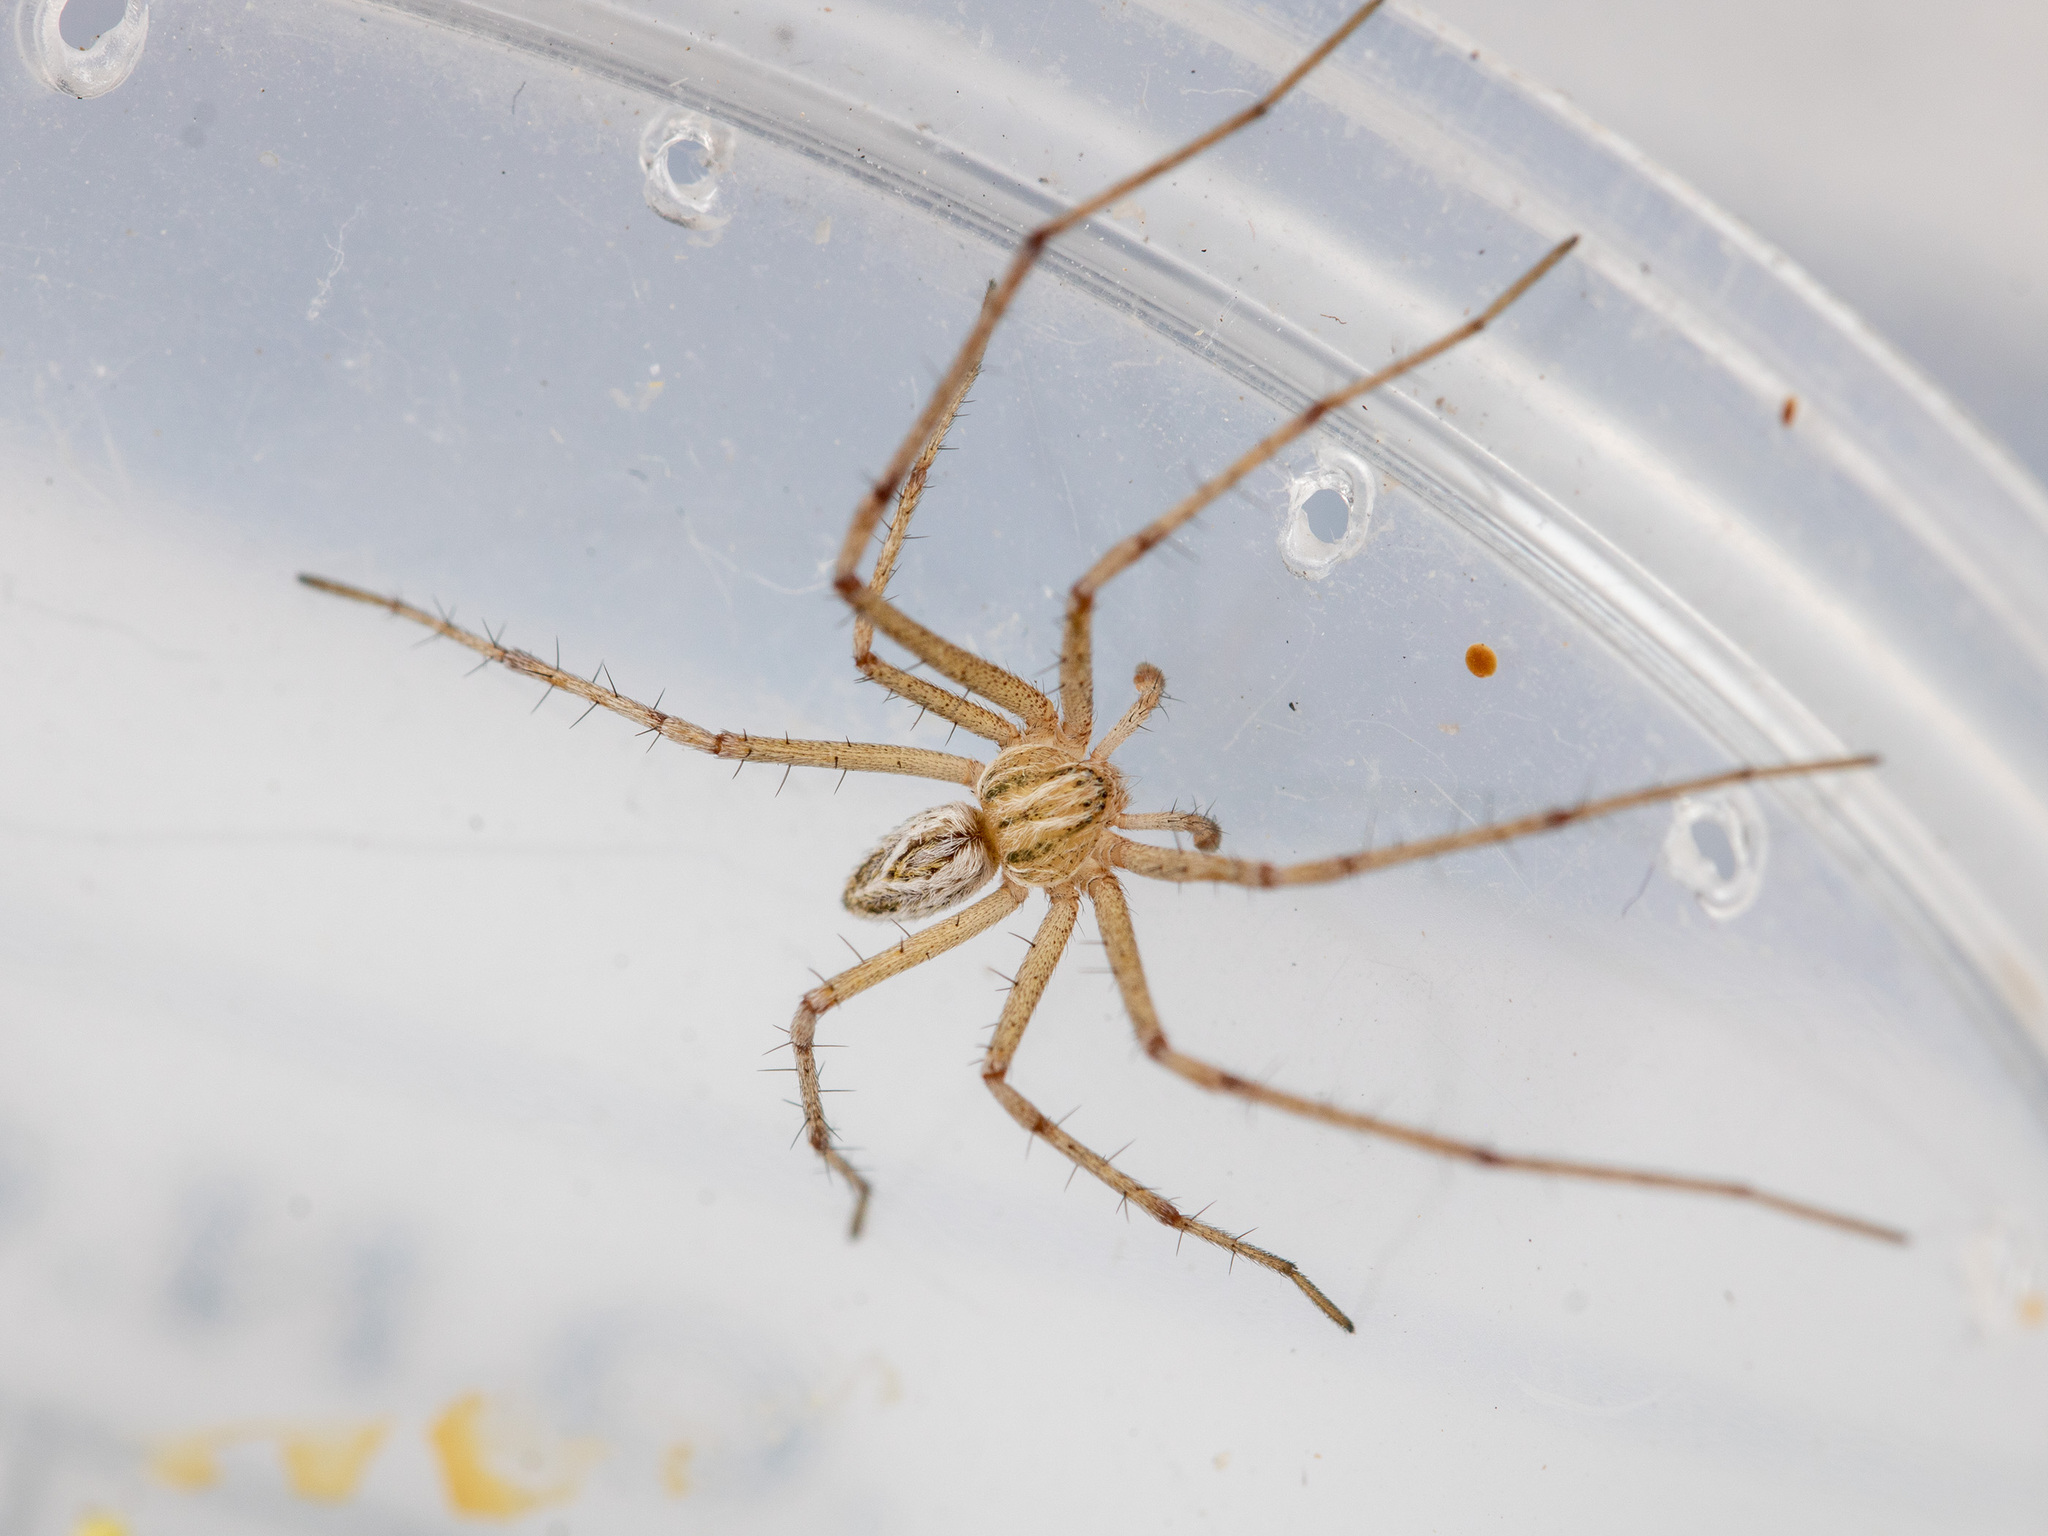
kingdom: Animalia
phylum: Arthropoda
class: Arachnida
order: Araneae
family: Philodromidae
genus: Thanatus
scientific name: Thanatus oblongiusculus
